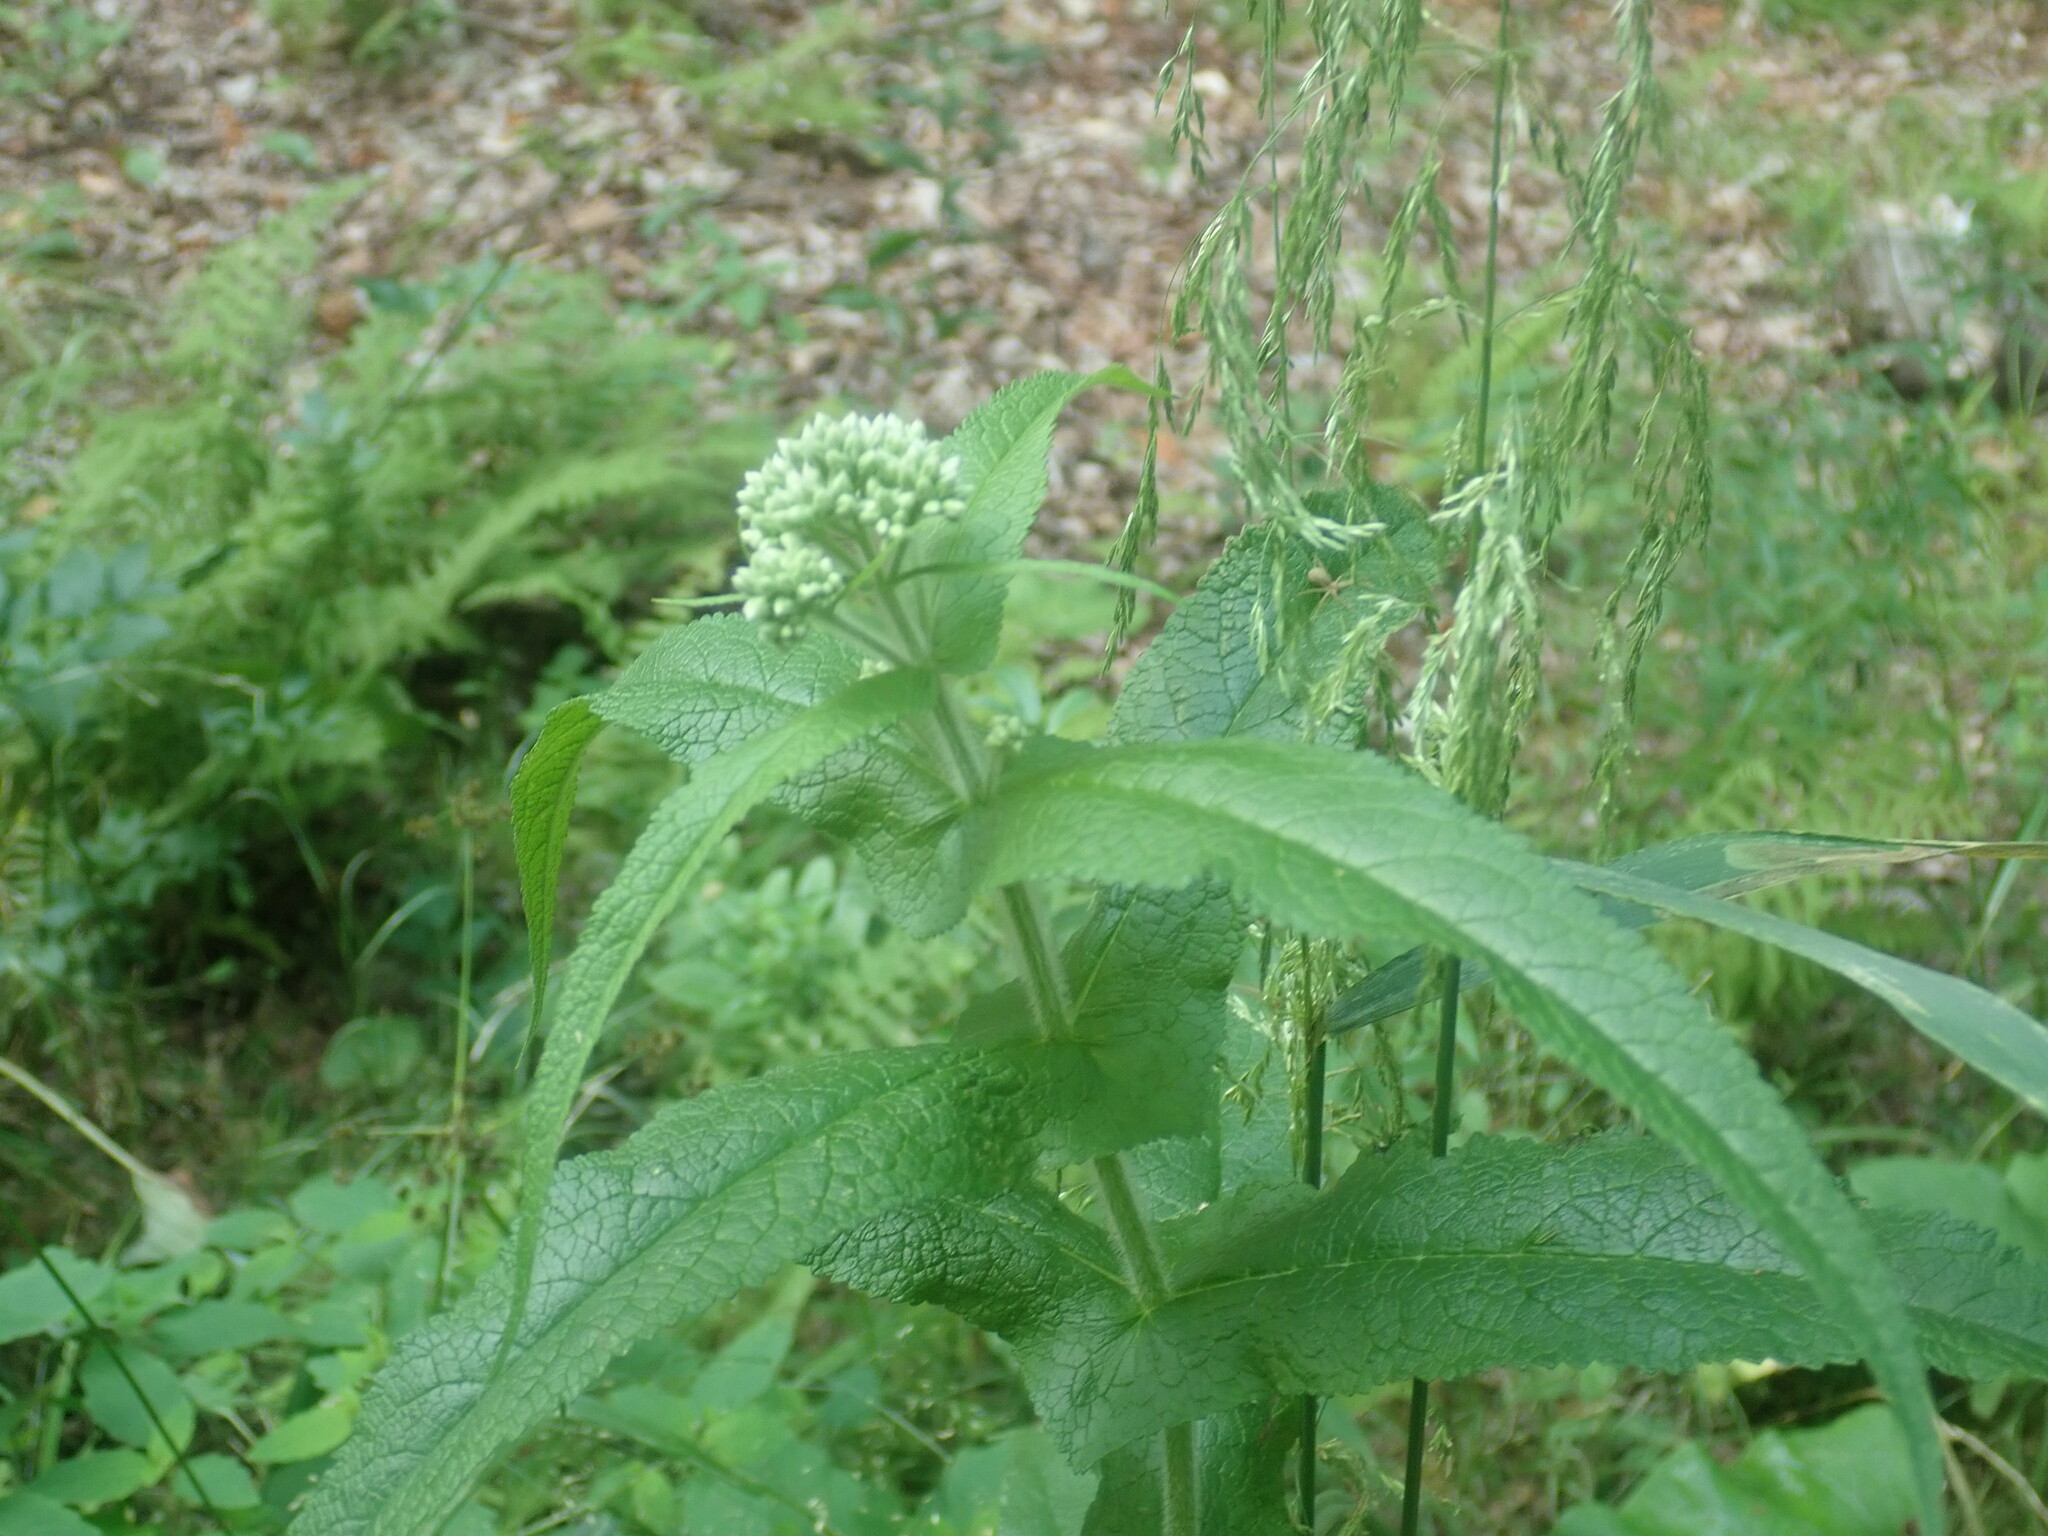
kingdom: Plantae
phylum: Tracheophyta
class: Magnoliopsida
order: Asterales
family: Asteraceae
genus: Eupatorium
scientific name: Eupatorium perfoliatum
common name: Boneset
